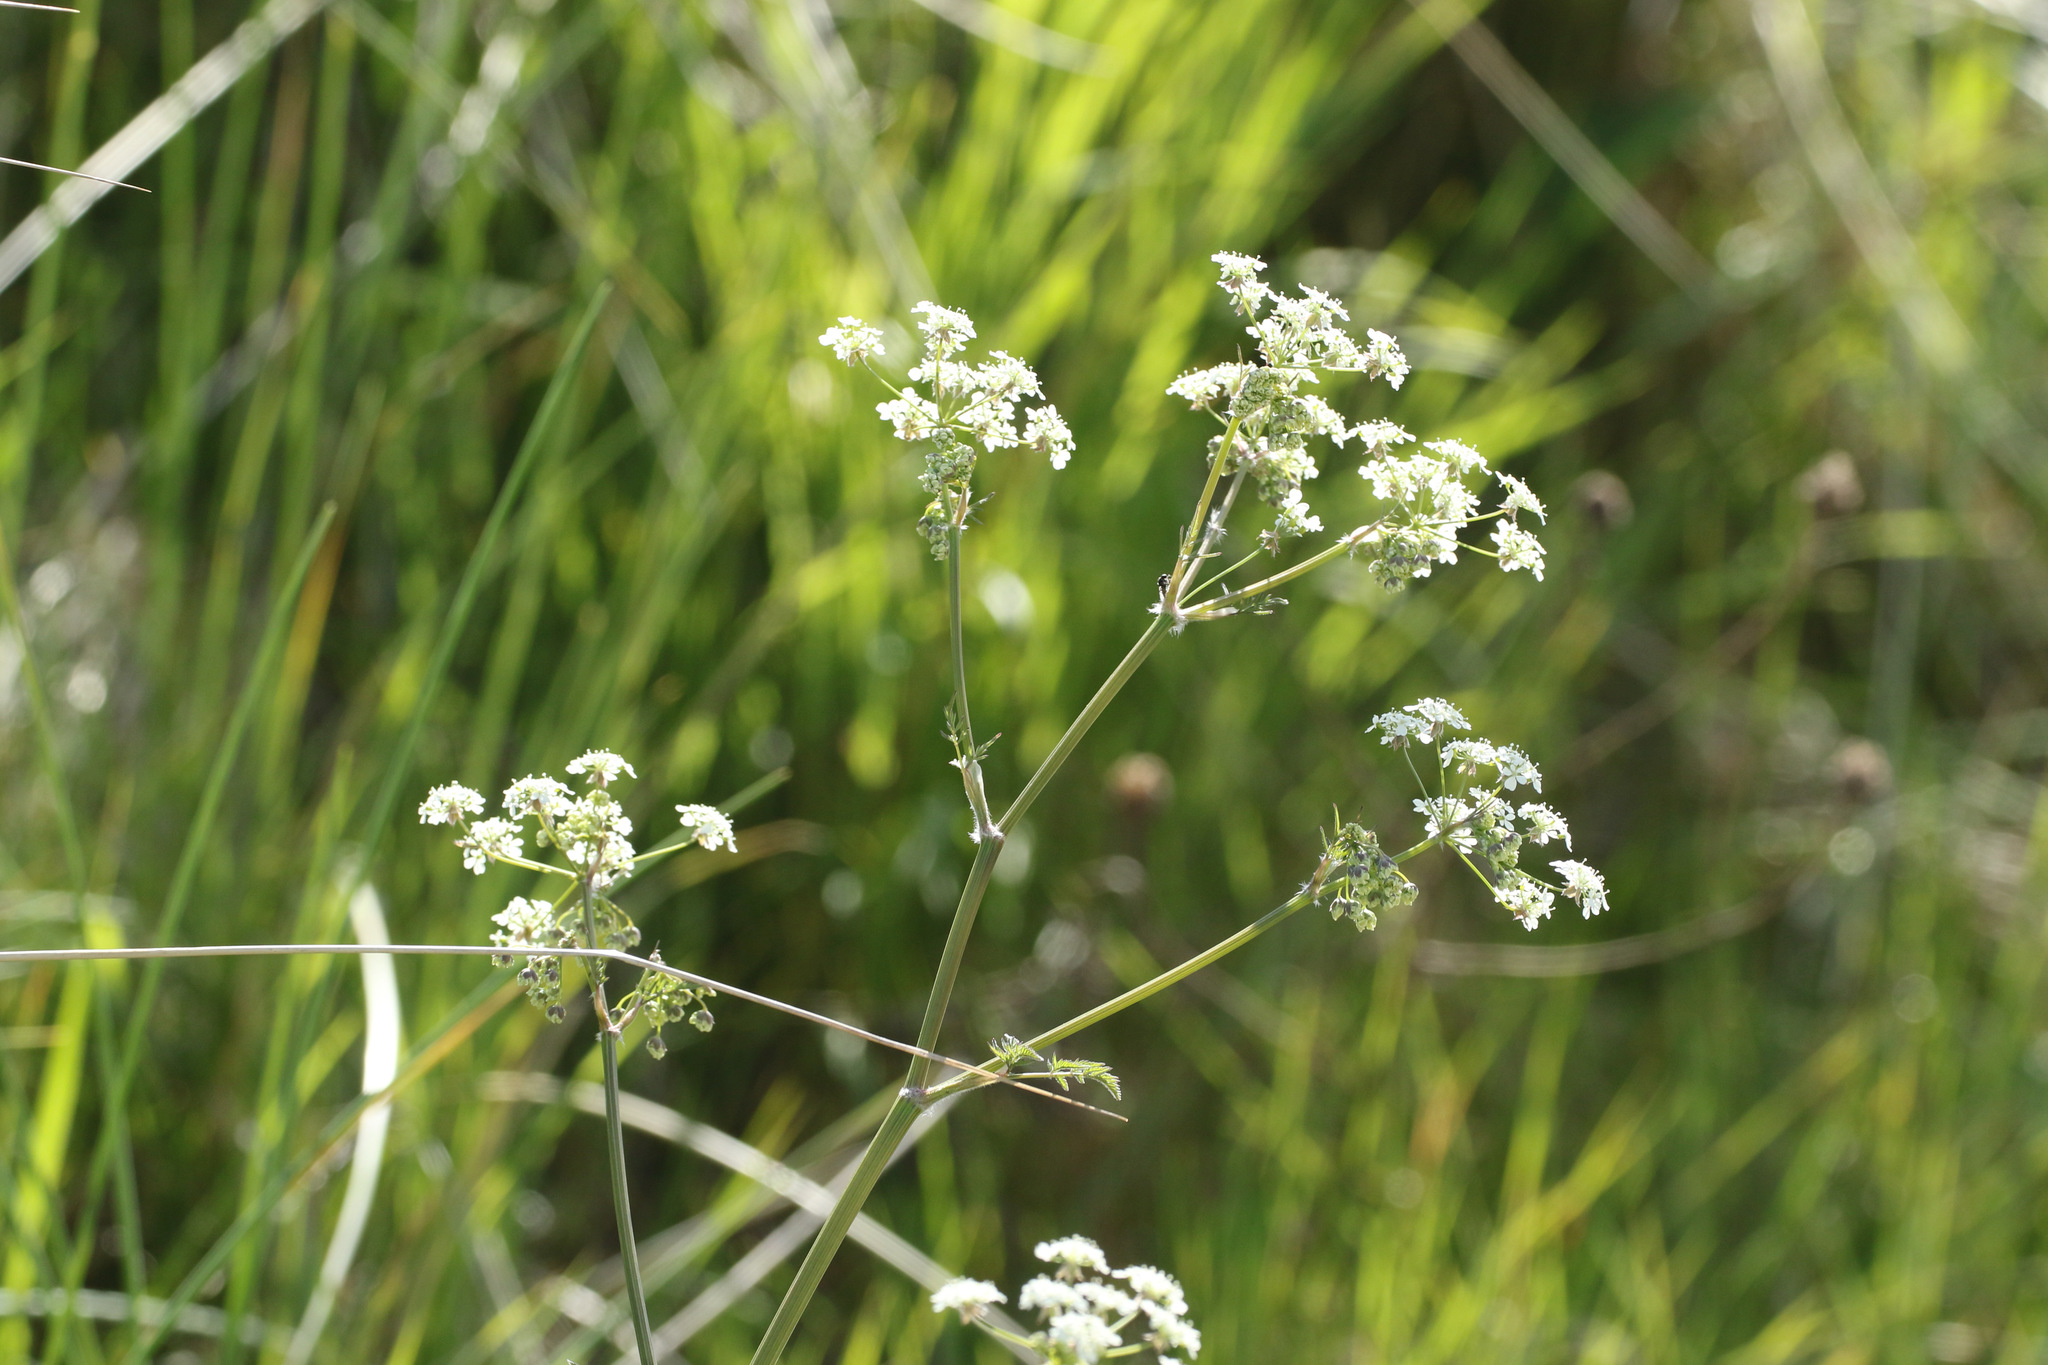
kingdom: Plantae
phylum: Tracheophyta
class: Magnoliopsida
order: Apiales
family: Apiaceae
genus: Anthriscus
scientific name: Anthriscus sylvestris
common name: Cow parsley
